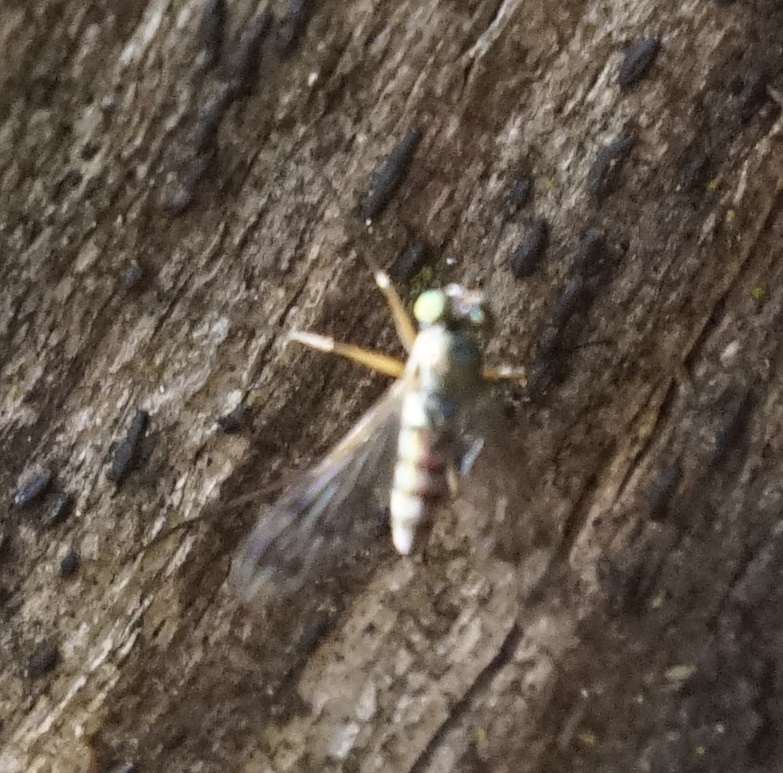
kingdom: Animalia
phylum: Arthropoda
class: Insecta
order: Diptera
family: Dolichopodidae
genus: Heteropsilopus
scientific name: Heteropsilopus squamifer
